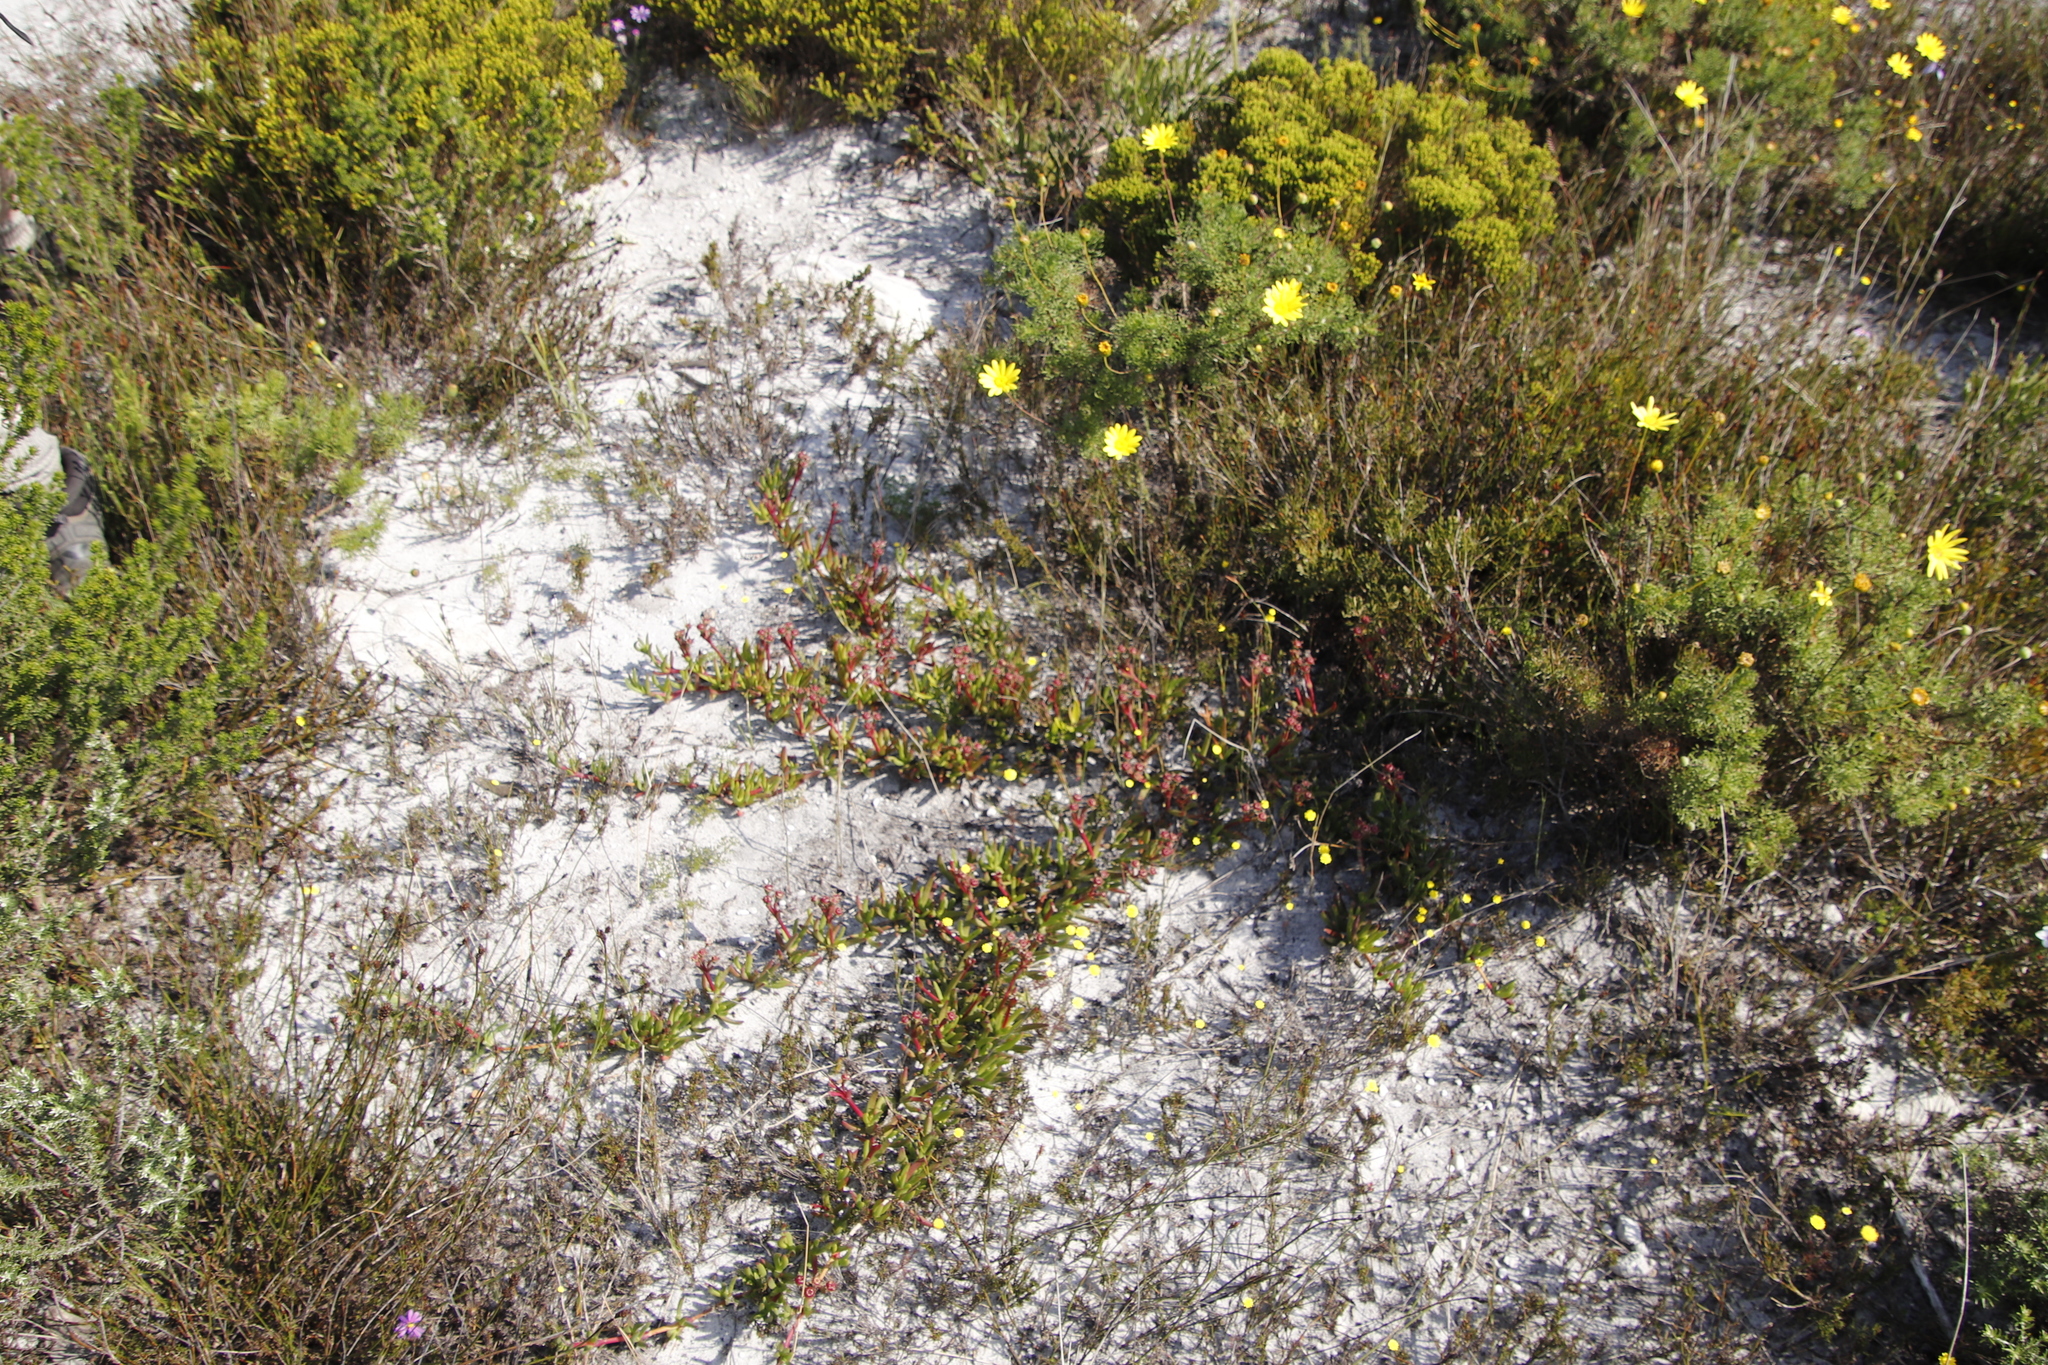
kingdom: Plantae
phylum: Tracheophyta
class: Magnoliopsida
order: Caryophyllales
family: Aizoaceae
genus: Ruschia
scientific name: Ruschia sarmentosa
